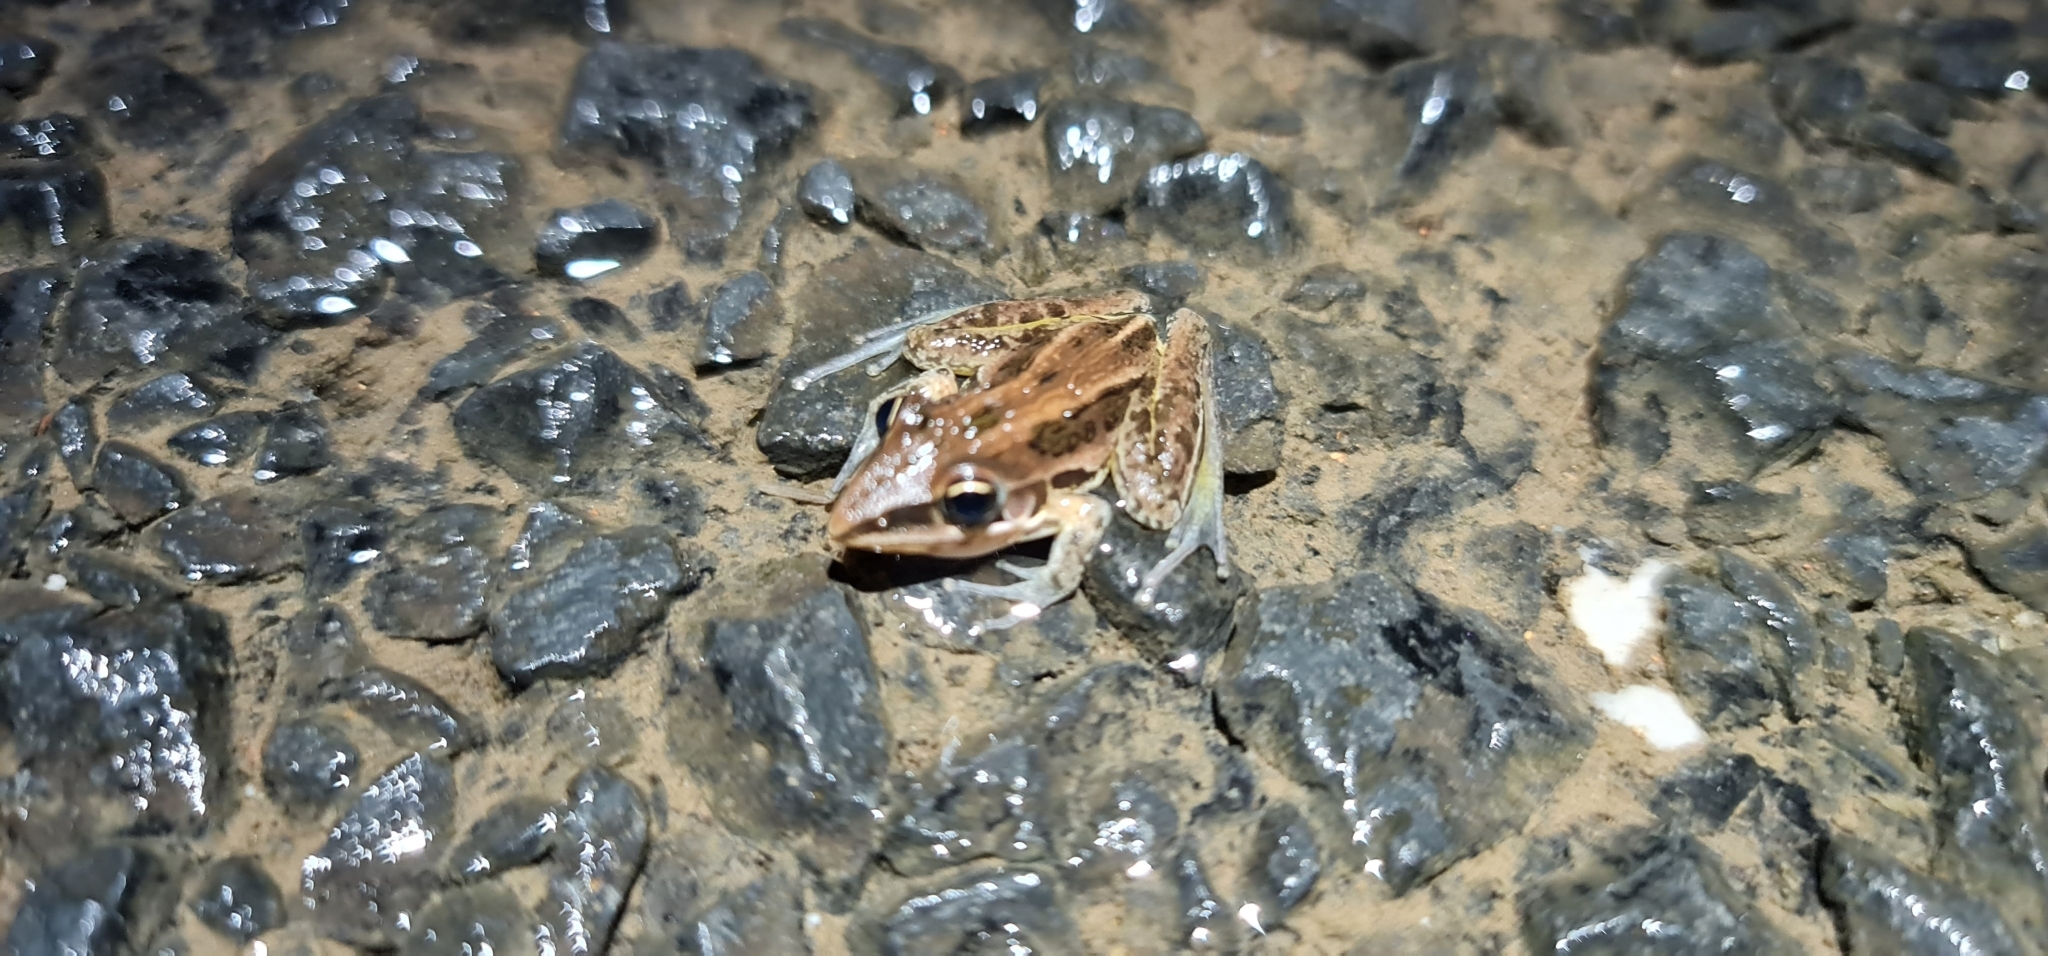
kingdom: Animalia
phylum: Chordata
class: Amphibia
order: Anura
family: Pelodryadidae
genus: Litoria
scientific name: Litoria nasuta
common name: Rocket frog
